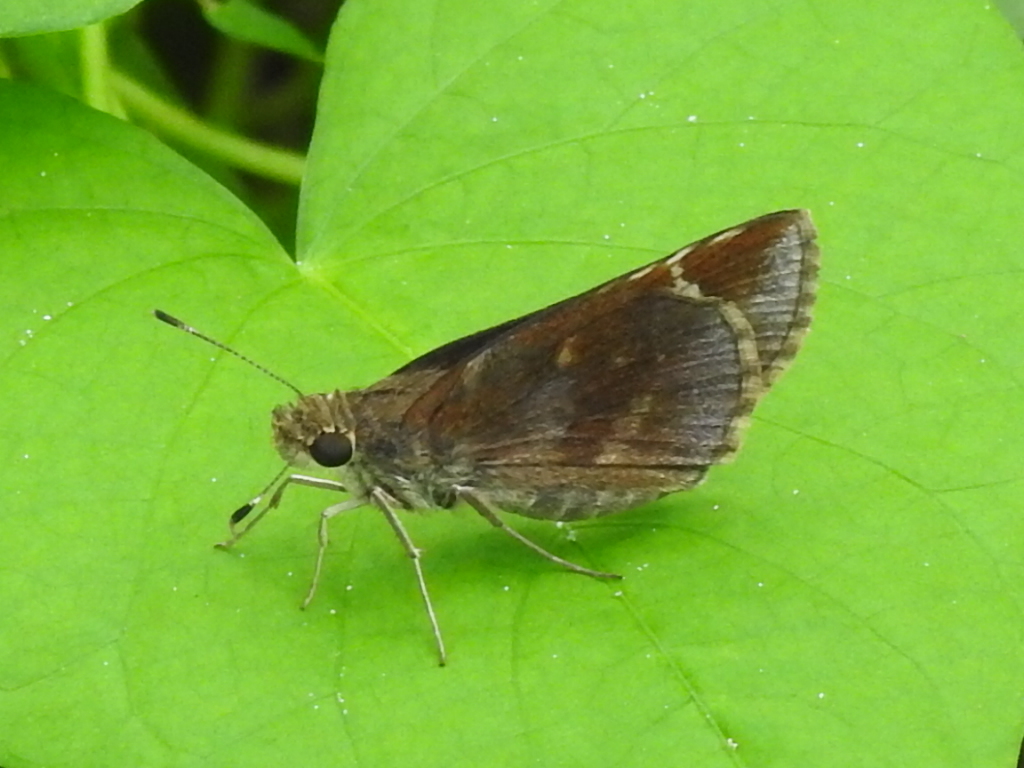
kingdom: Animalia
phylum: Arthropoda
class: Insecta
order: Lepidoptera
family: Hesperiidae
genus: Lerema
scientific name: Lerema accius
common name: Clouded skipper
